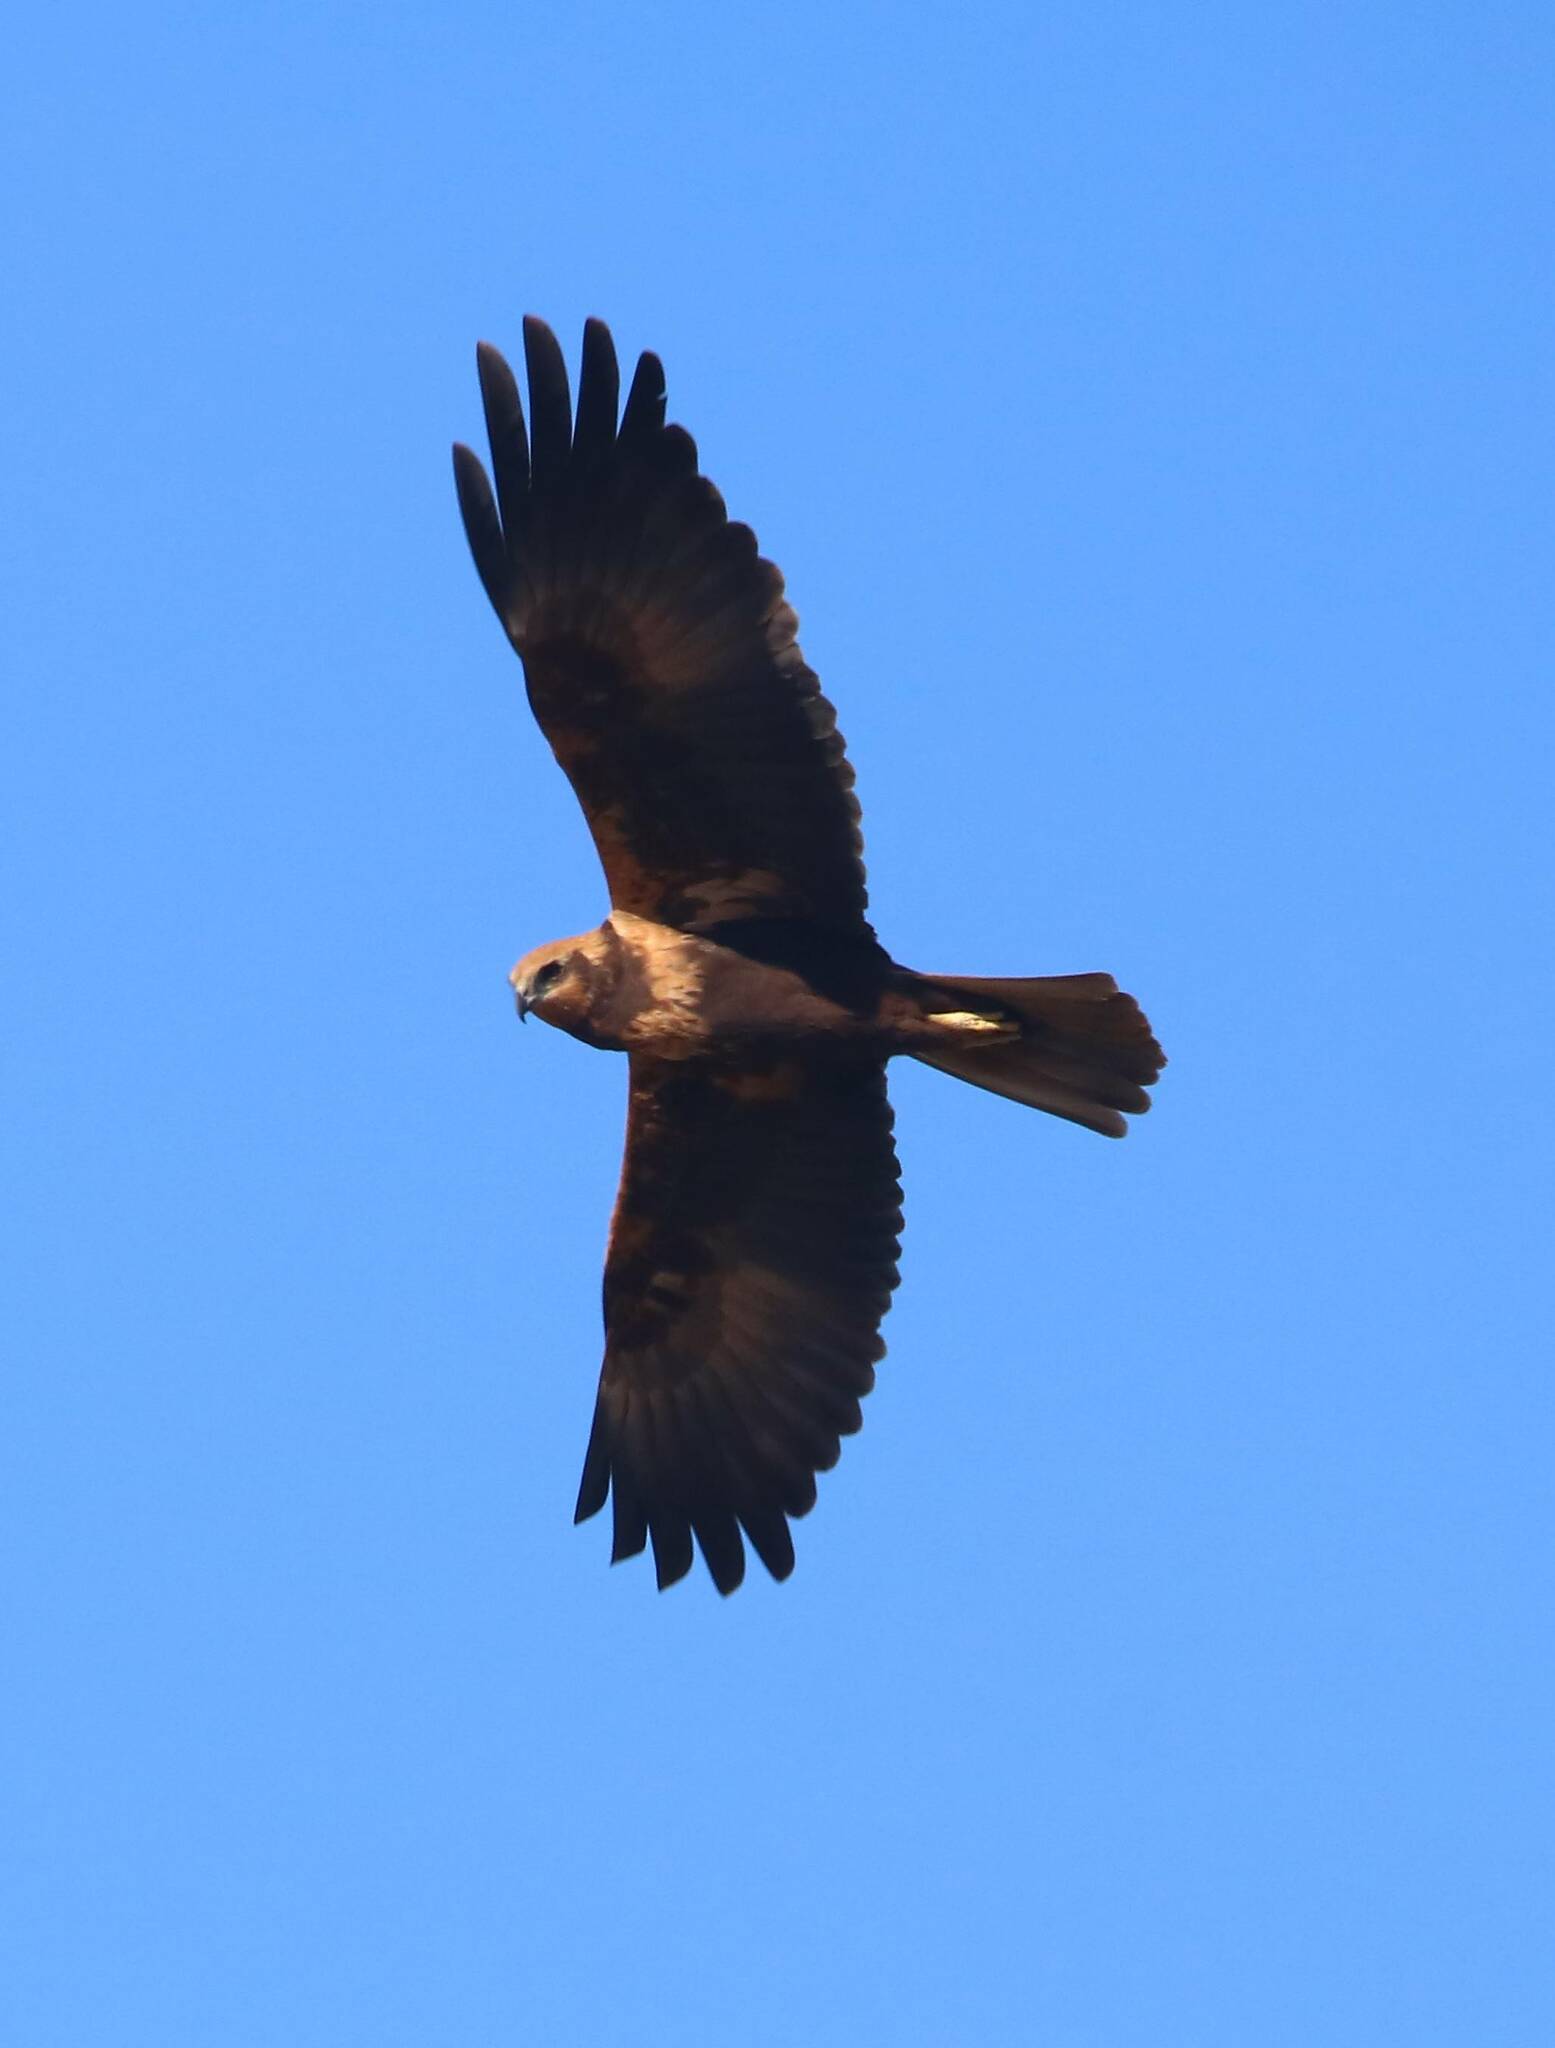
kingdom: Animalia
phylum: Chordata
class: Aves
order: Accipitriformes
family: Accipitridae
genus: Circus
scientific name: Circus aeruginosus
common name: Western marsh harrier
